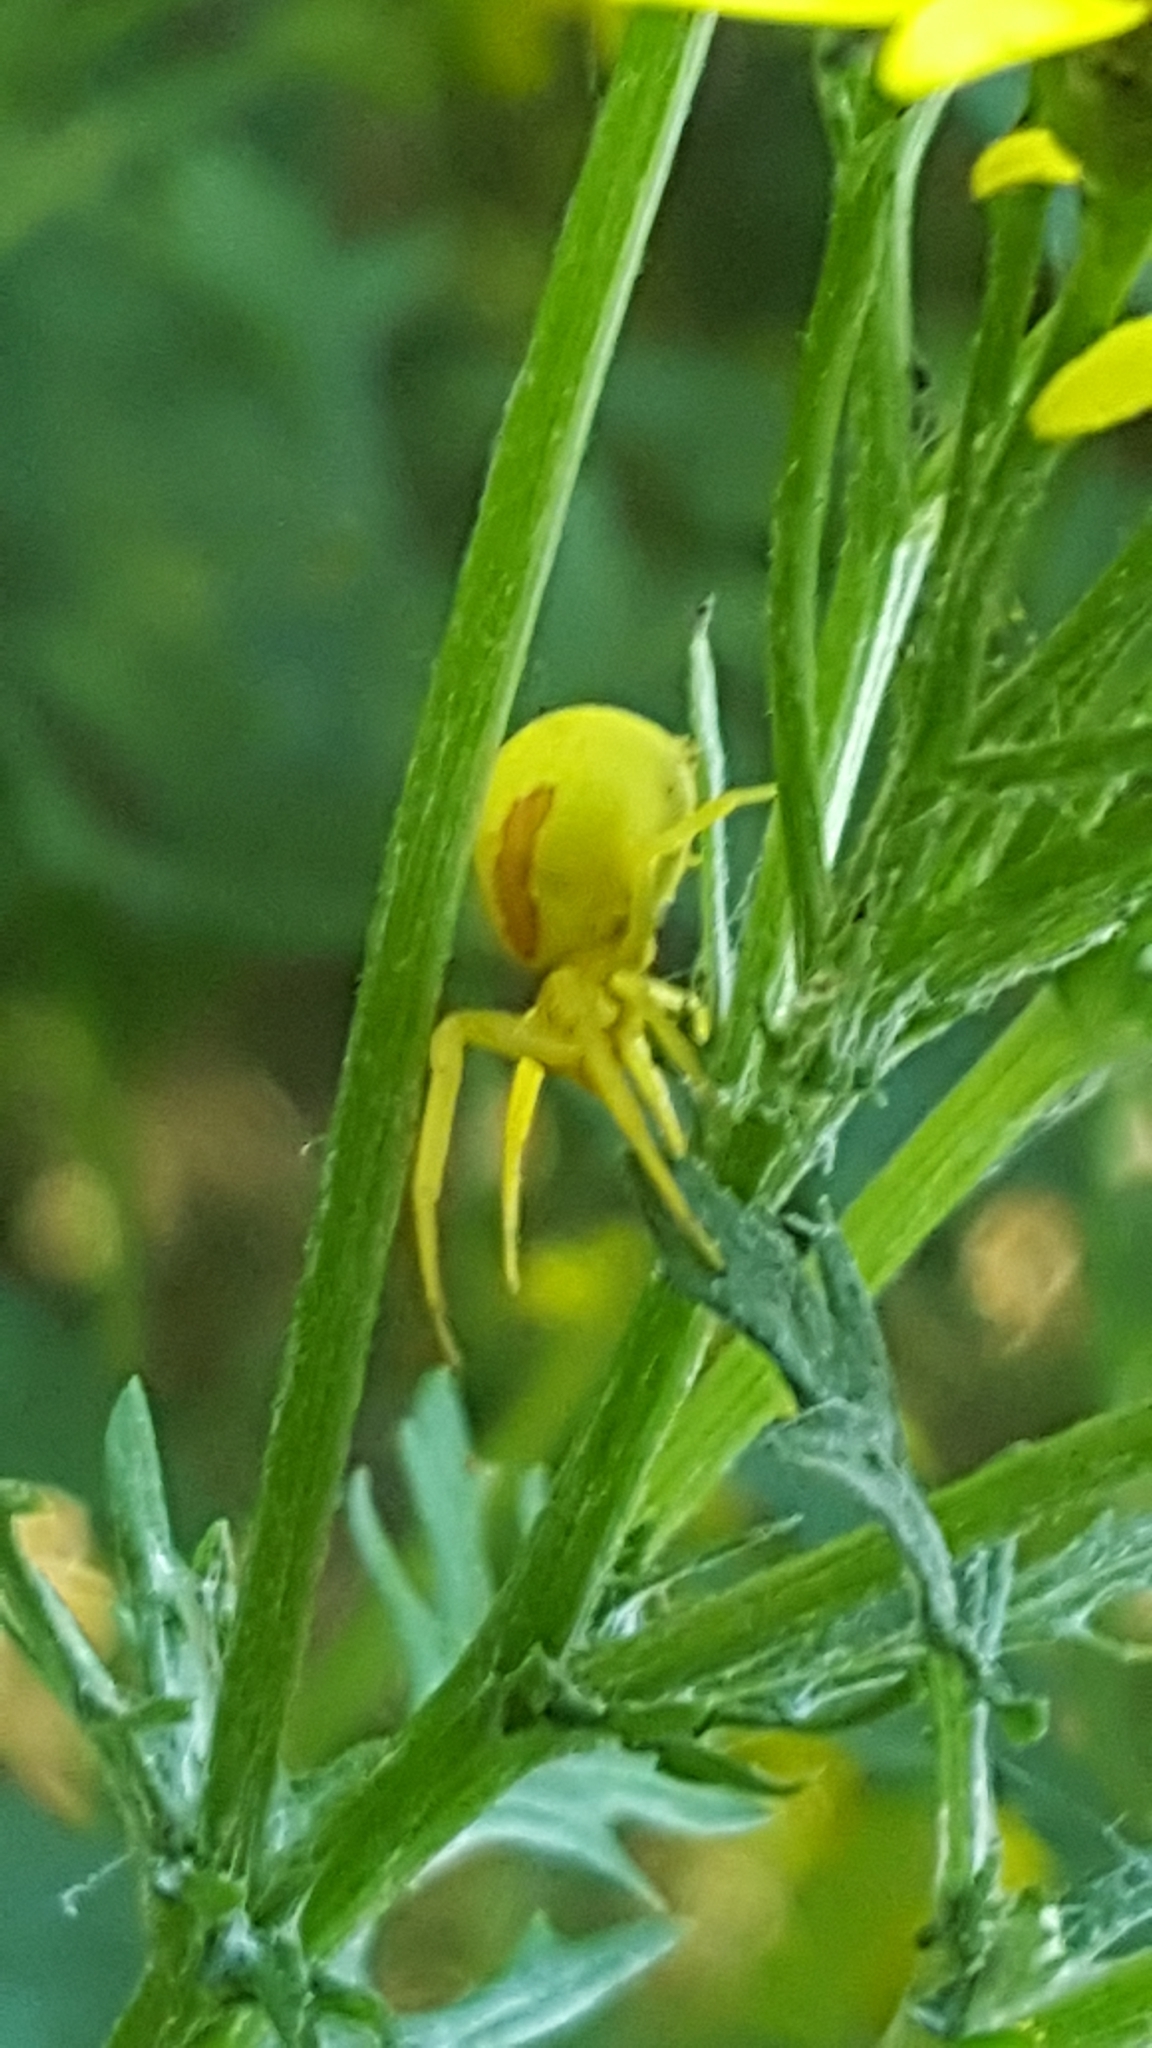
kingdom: Animalia
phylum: Arthropoda
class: Arachnida
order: Araneae
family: Thomisidae
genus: Misumena
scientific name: Misumena vatia
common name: Goldenrod crab spider
